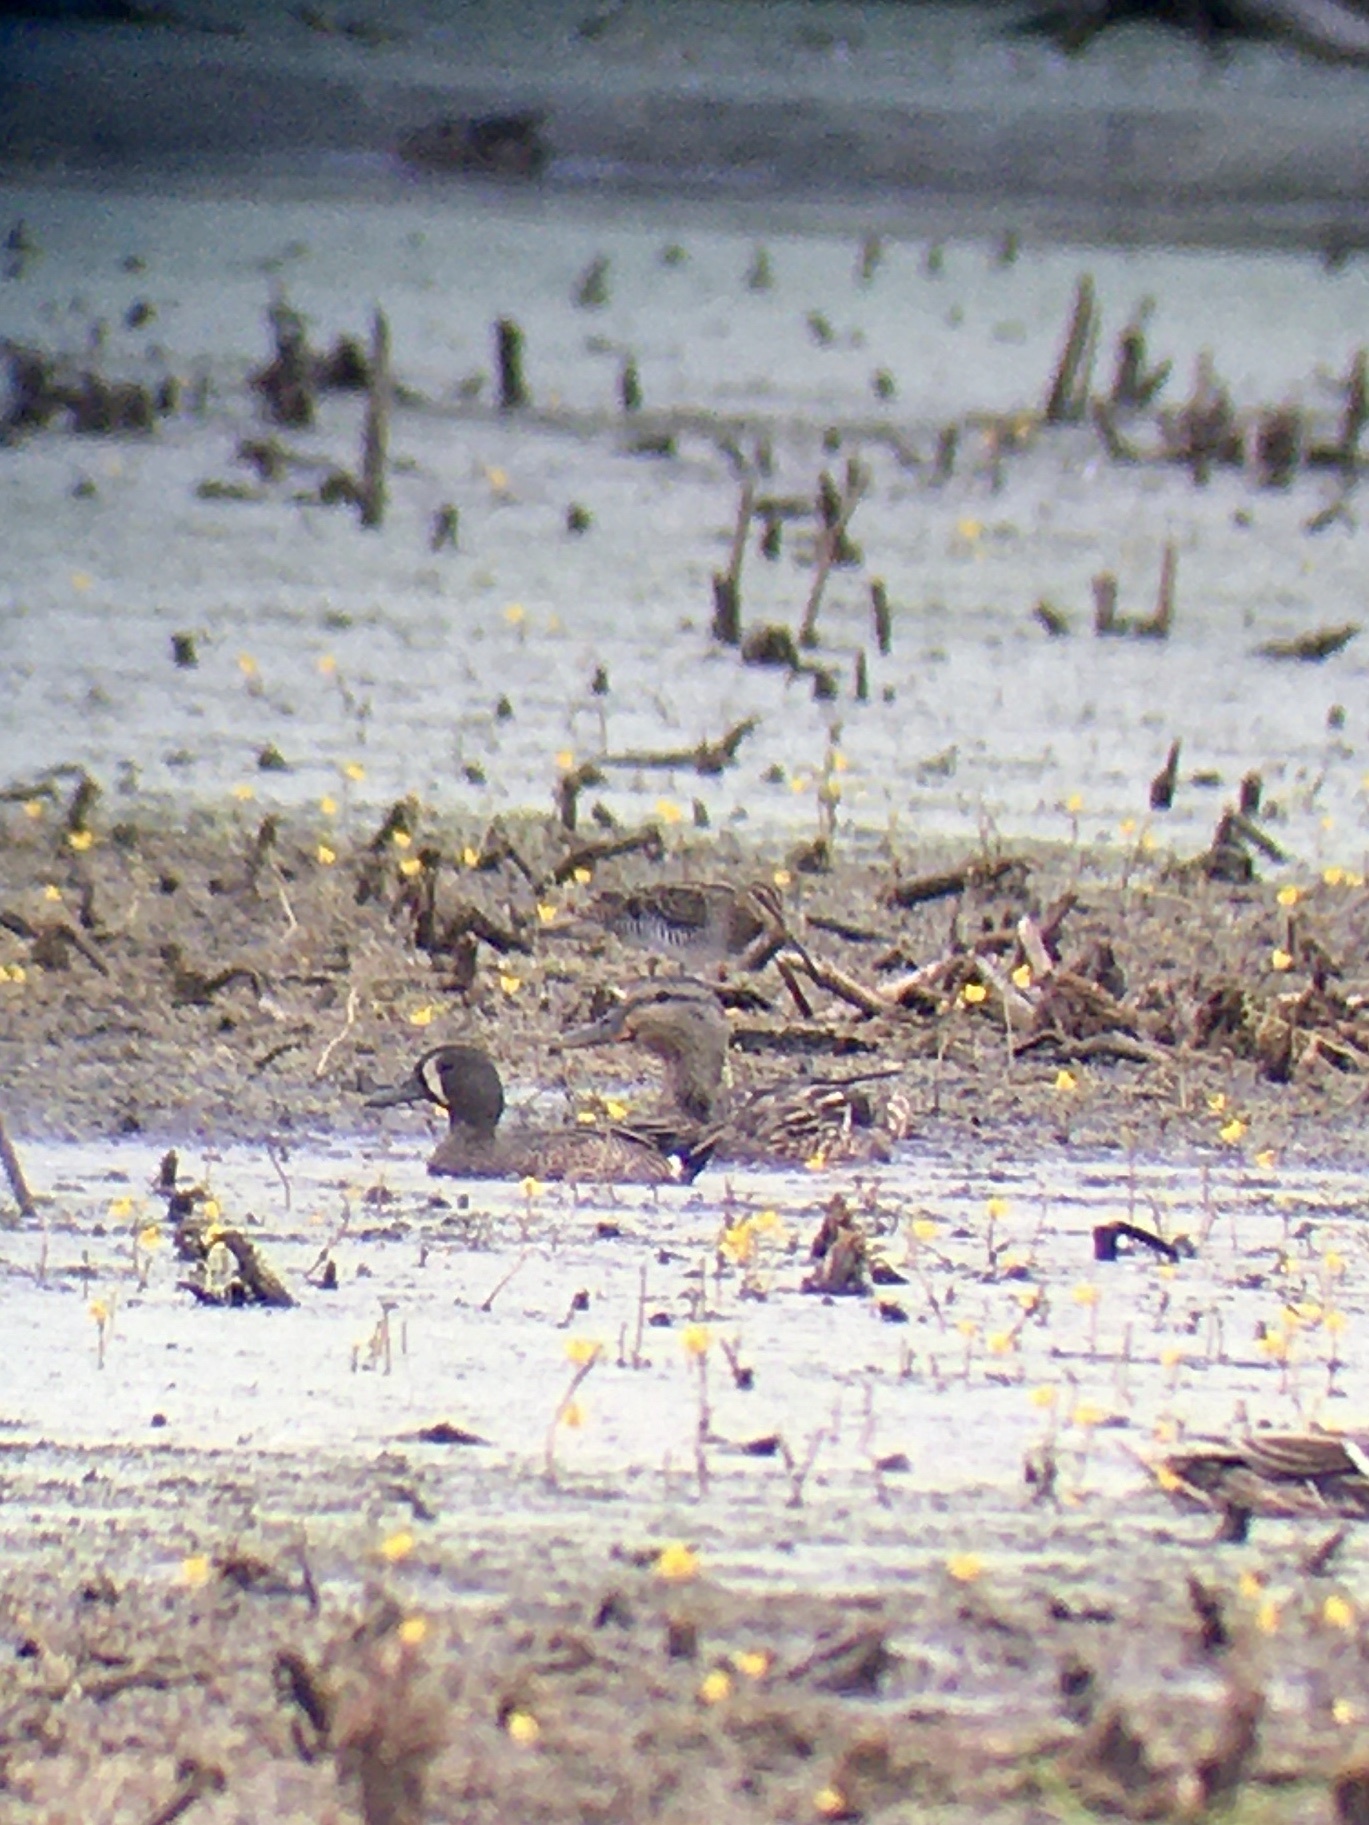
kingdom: Animalia
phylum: Chordata
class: Aves
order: Charadriiformes
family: Scolopacidae
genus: Gallinago
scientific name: Gallinago delicata
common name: Wilson's snipe
